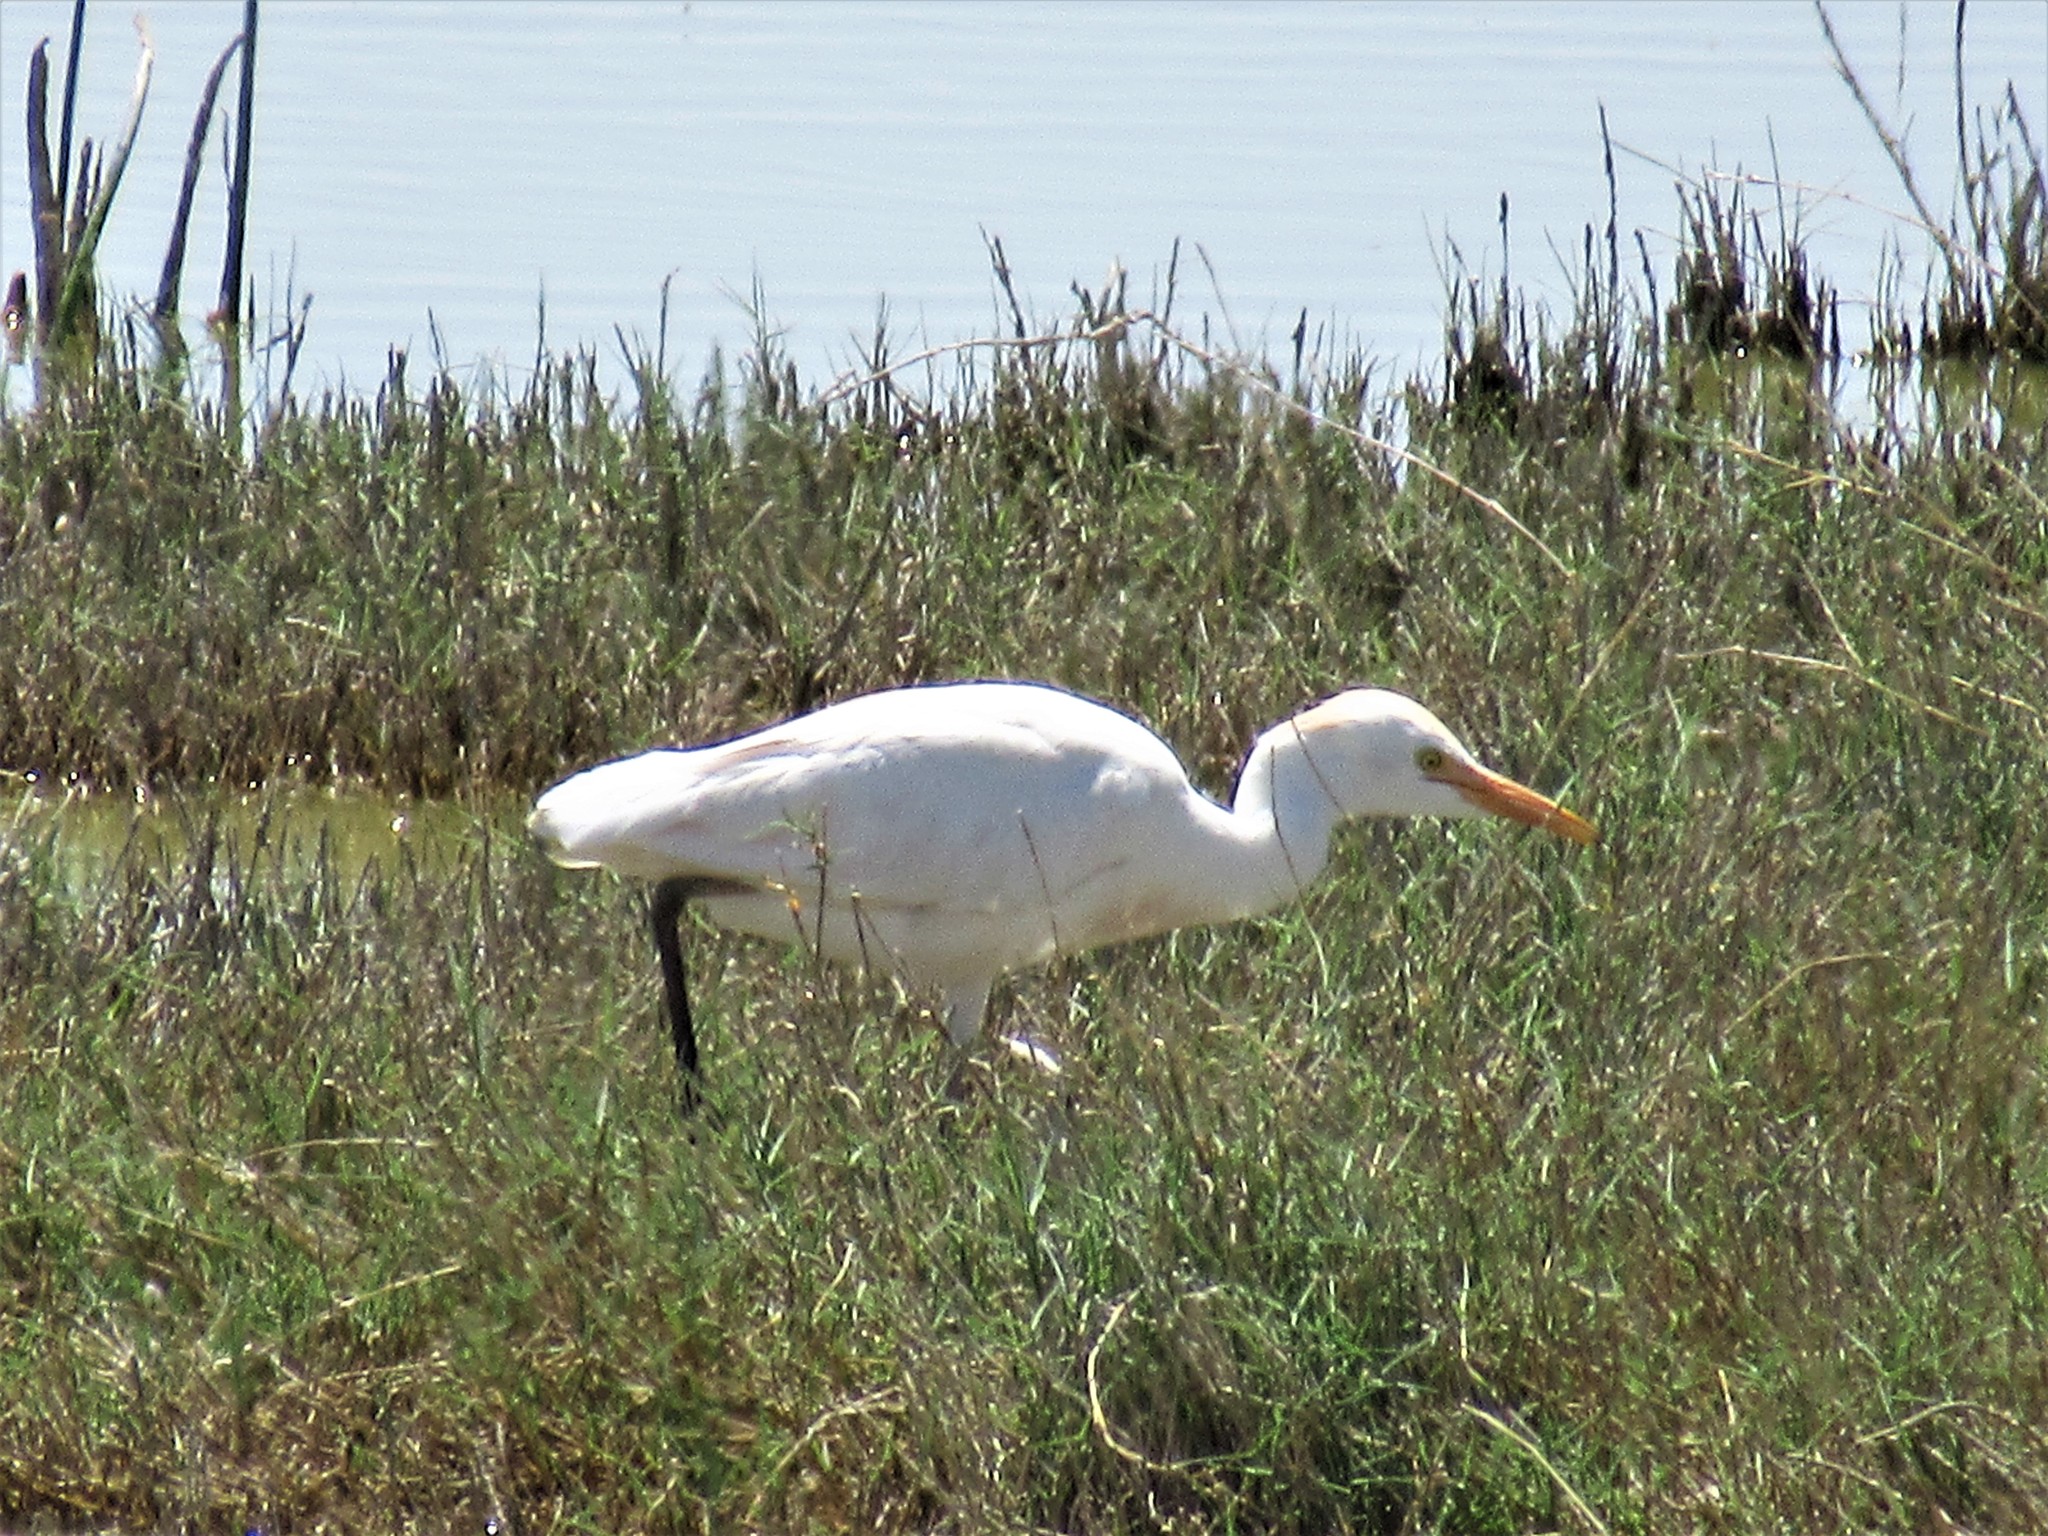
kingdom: Animalia
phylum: Chordata
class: Aves
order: Pelecaniformes
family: Ardeidae
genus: Bubulcus
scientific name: Bubulcus ibis
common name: Cattle egret
